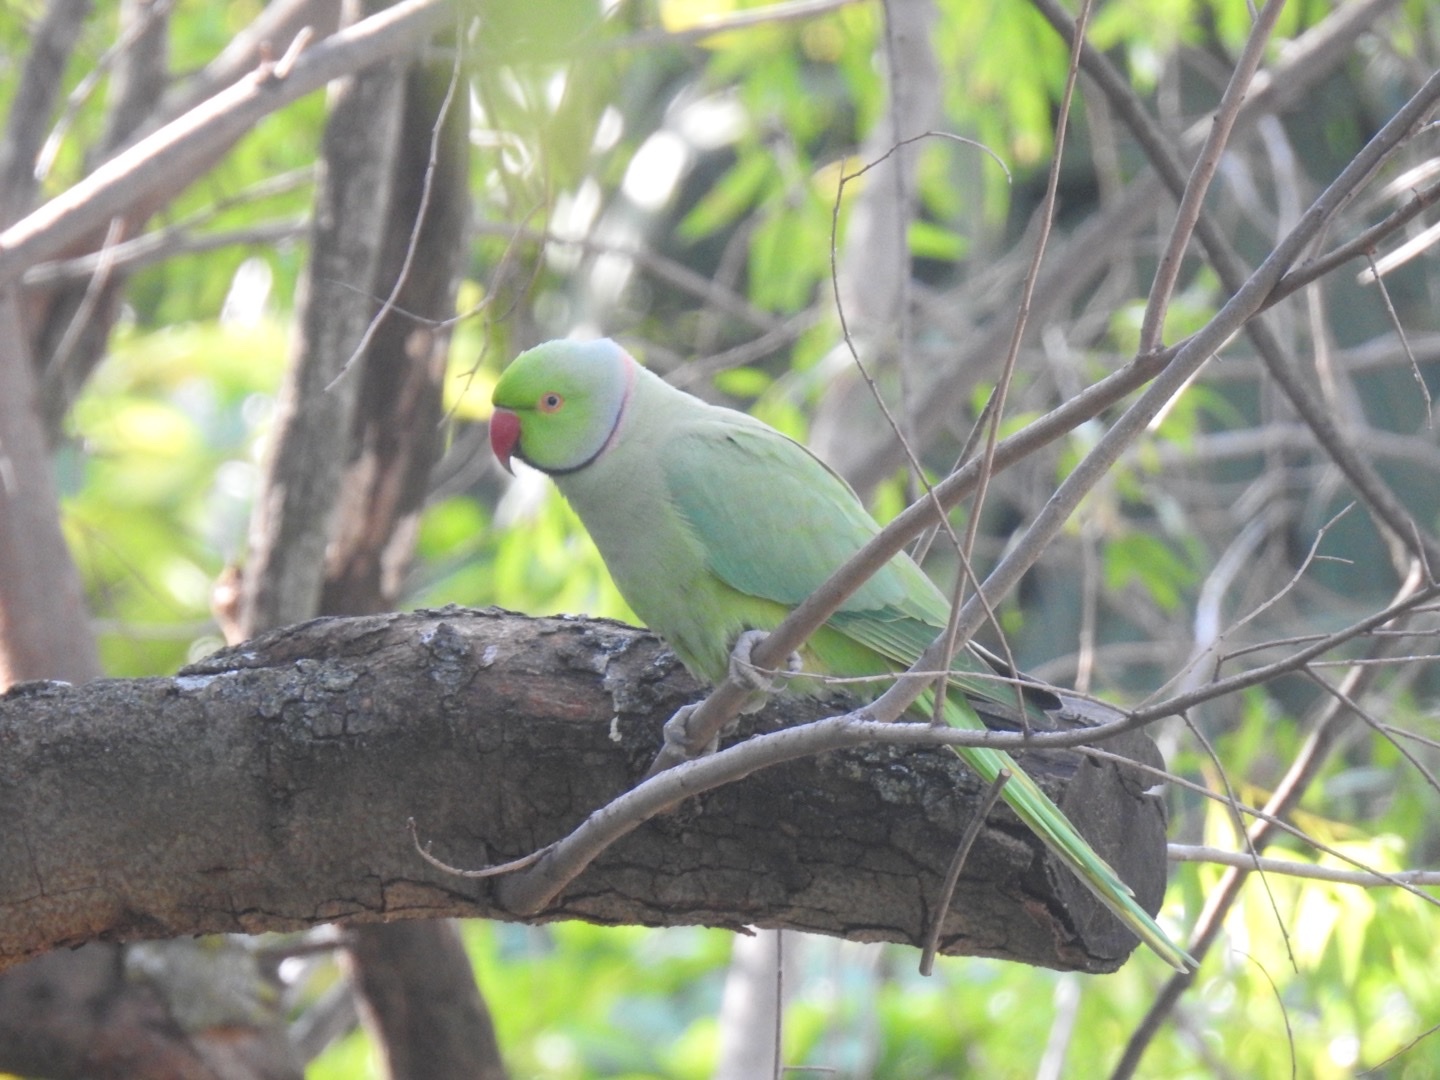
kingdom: Animalia
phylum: Chordata
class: Aves
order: Psittaciformes
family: Psittacidae
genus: Psittacula
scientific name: Psittacula krameri
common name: Rose-ringed parakeet
